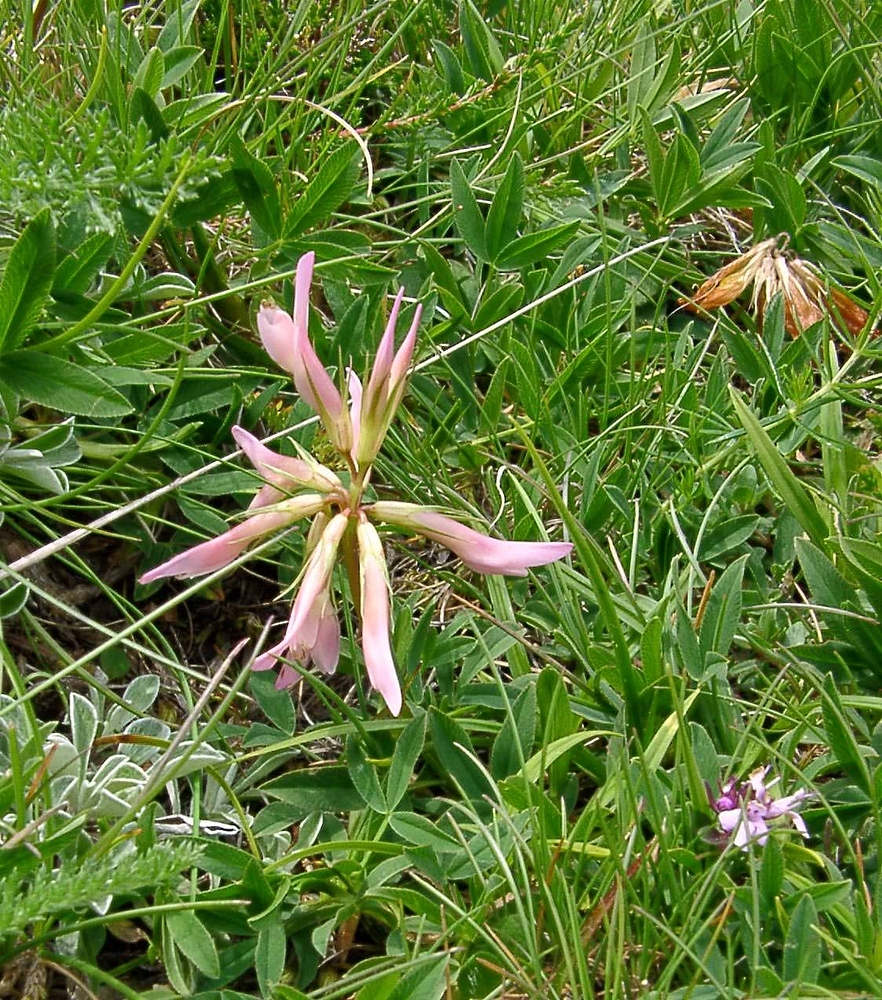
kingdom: Plantae
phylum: Tracheophyta
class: Magnoliopsida
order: Fabales
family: Fabaceae
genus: Trifolium
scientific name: Trifolium alpinum
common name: Alpine clover
